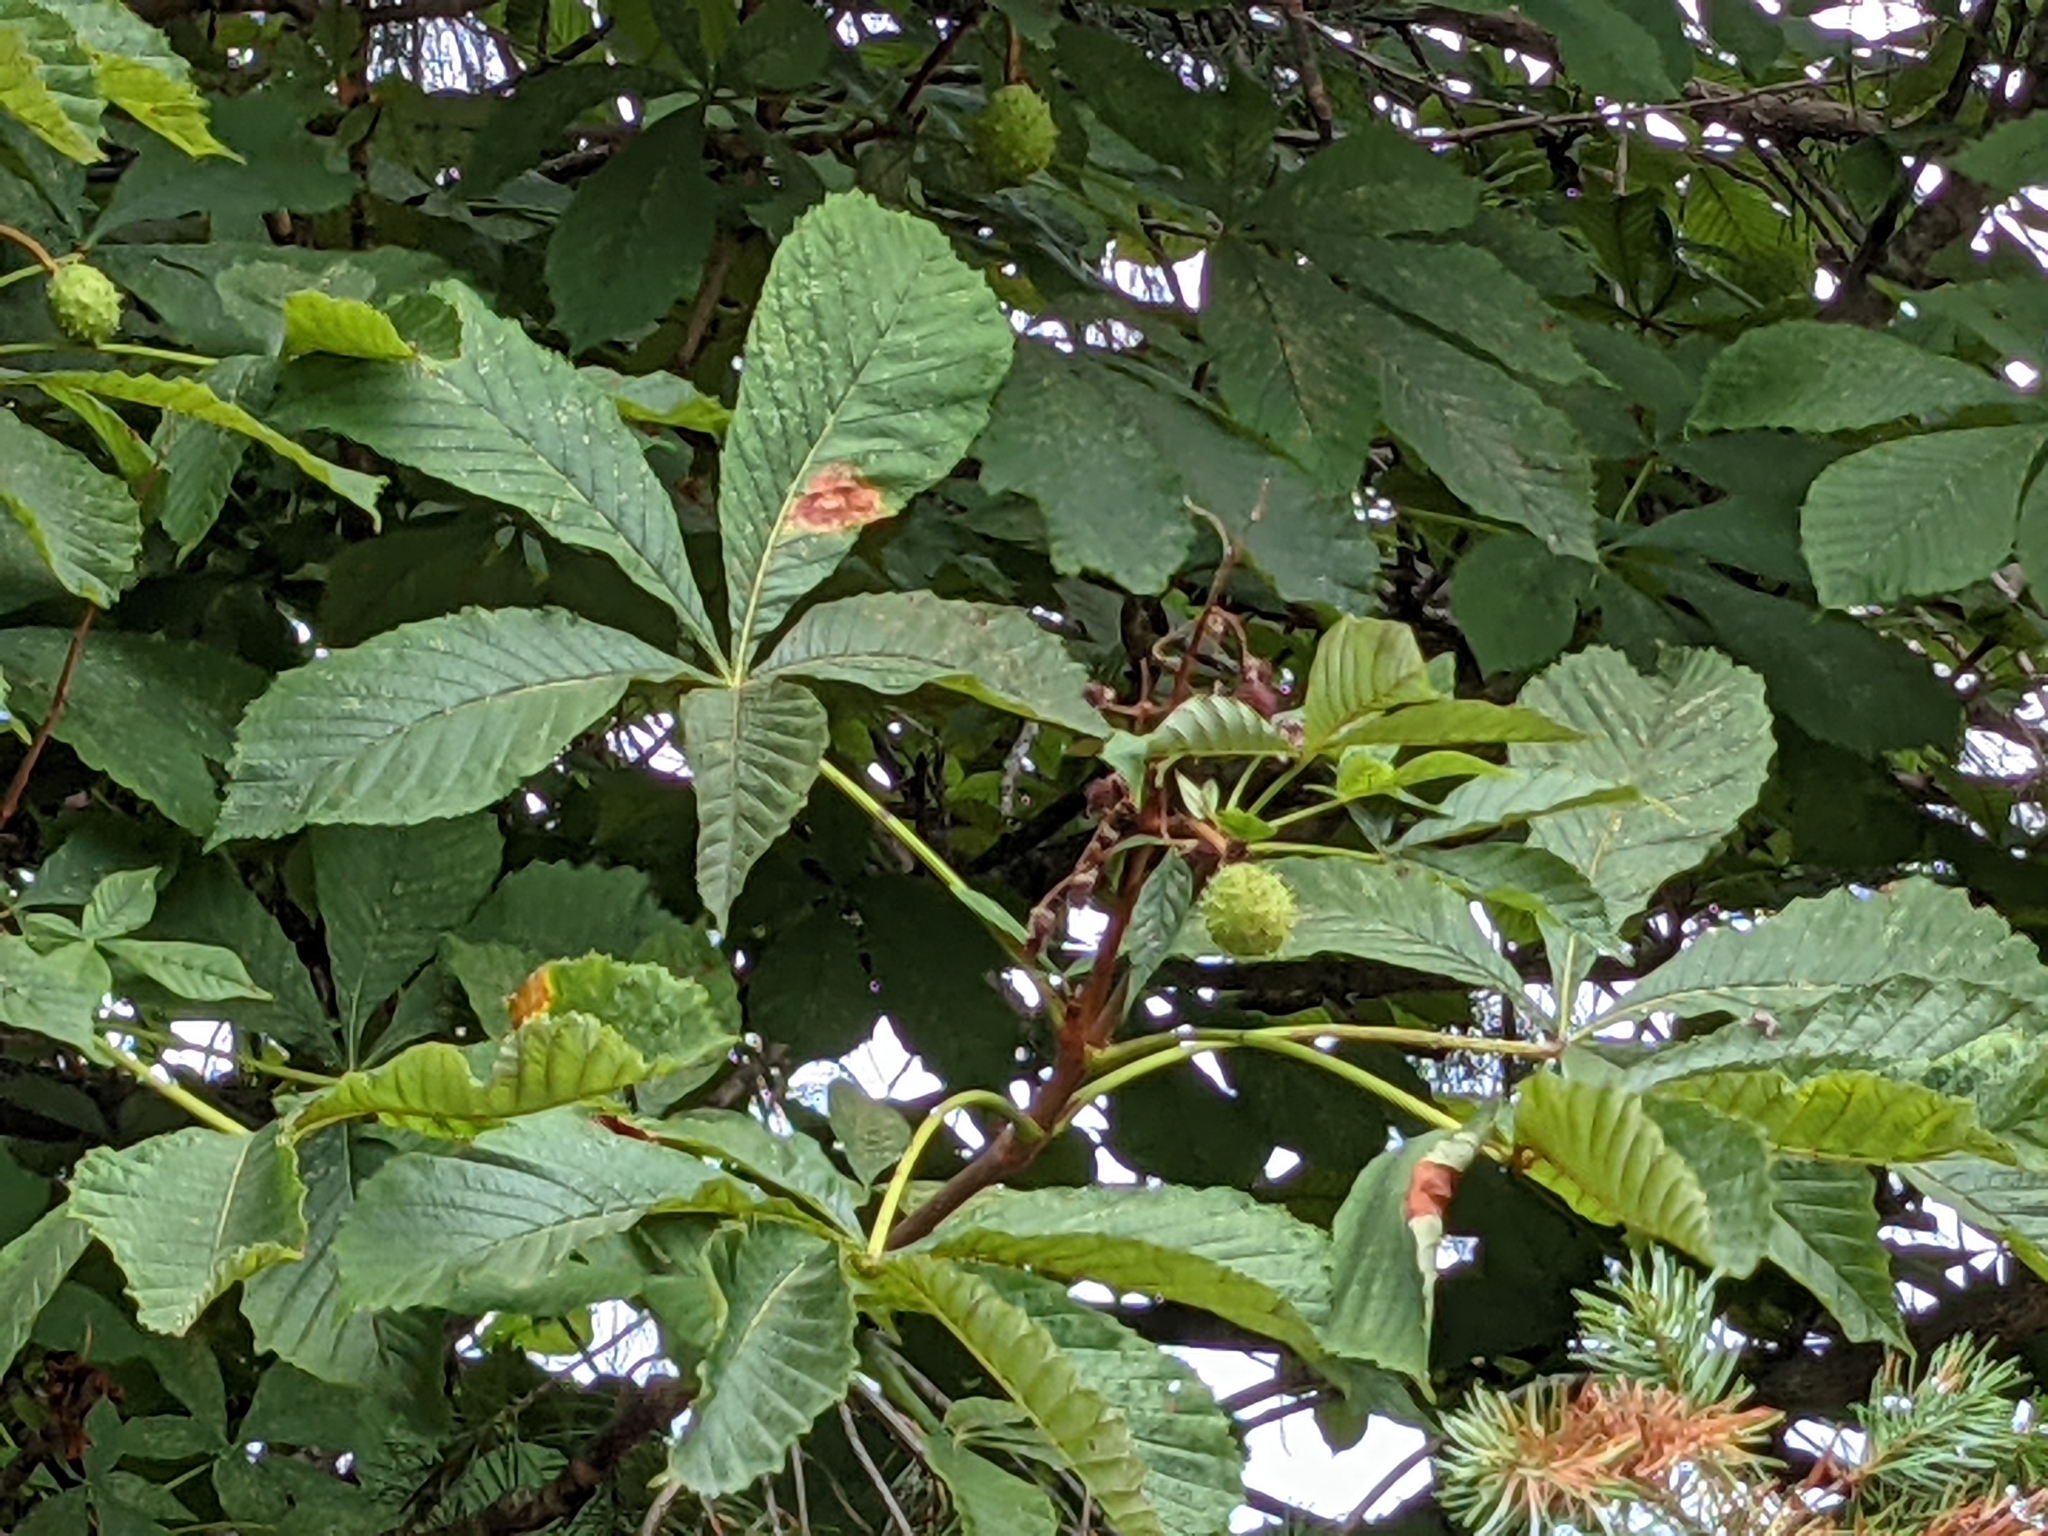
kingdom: Plantae
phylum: Tracheophyta
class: Magnoliopsida
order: Sapindales
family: Sapindaceae
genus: Aesculus
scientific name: Aesculus hippocastanum
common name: Horse-chestnut
